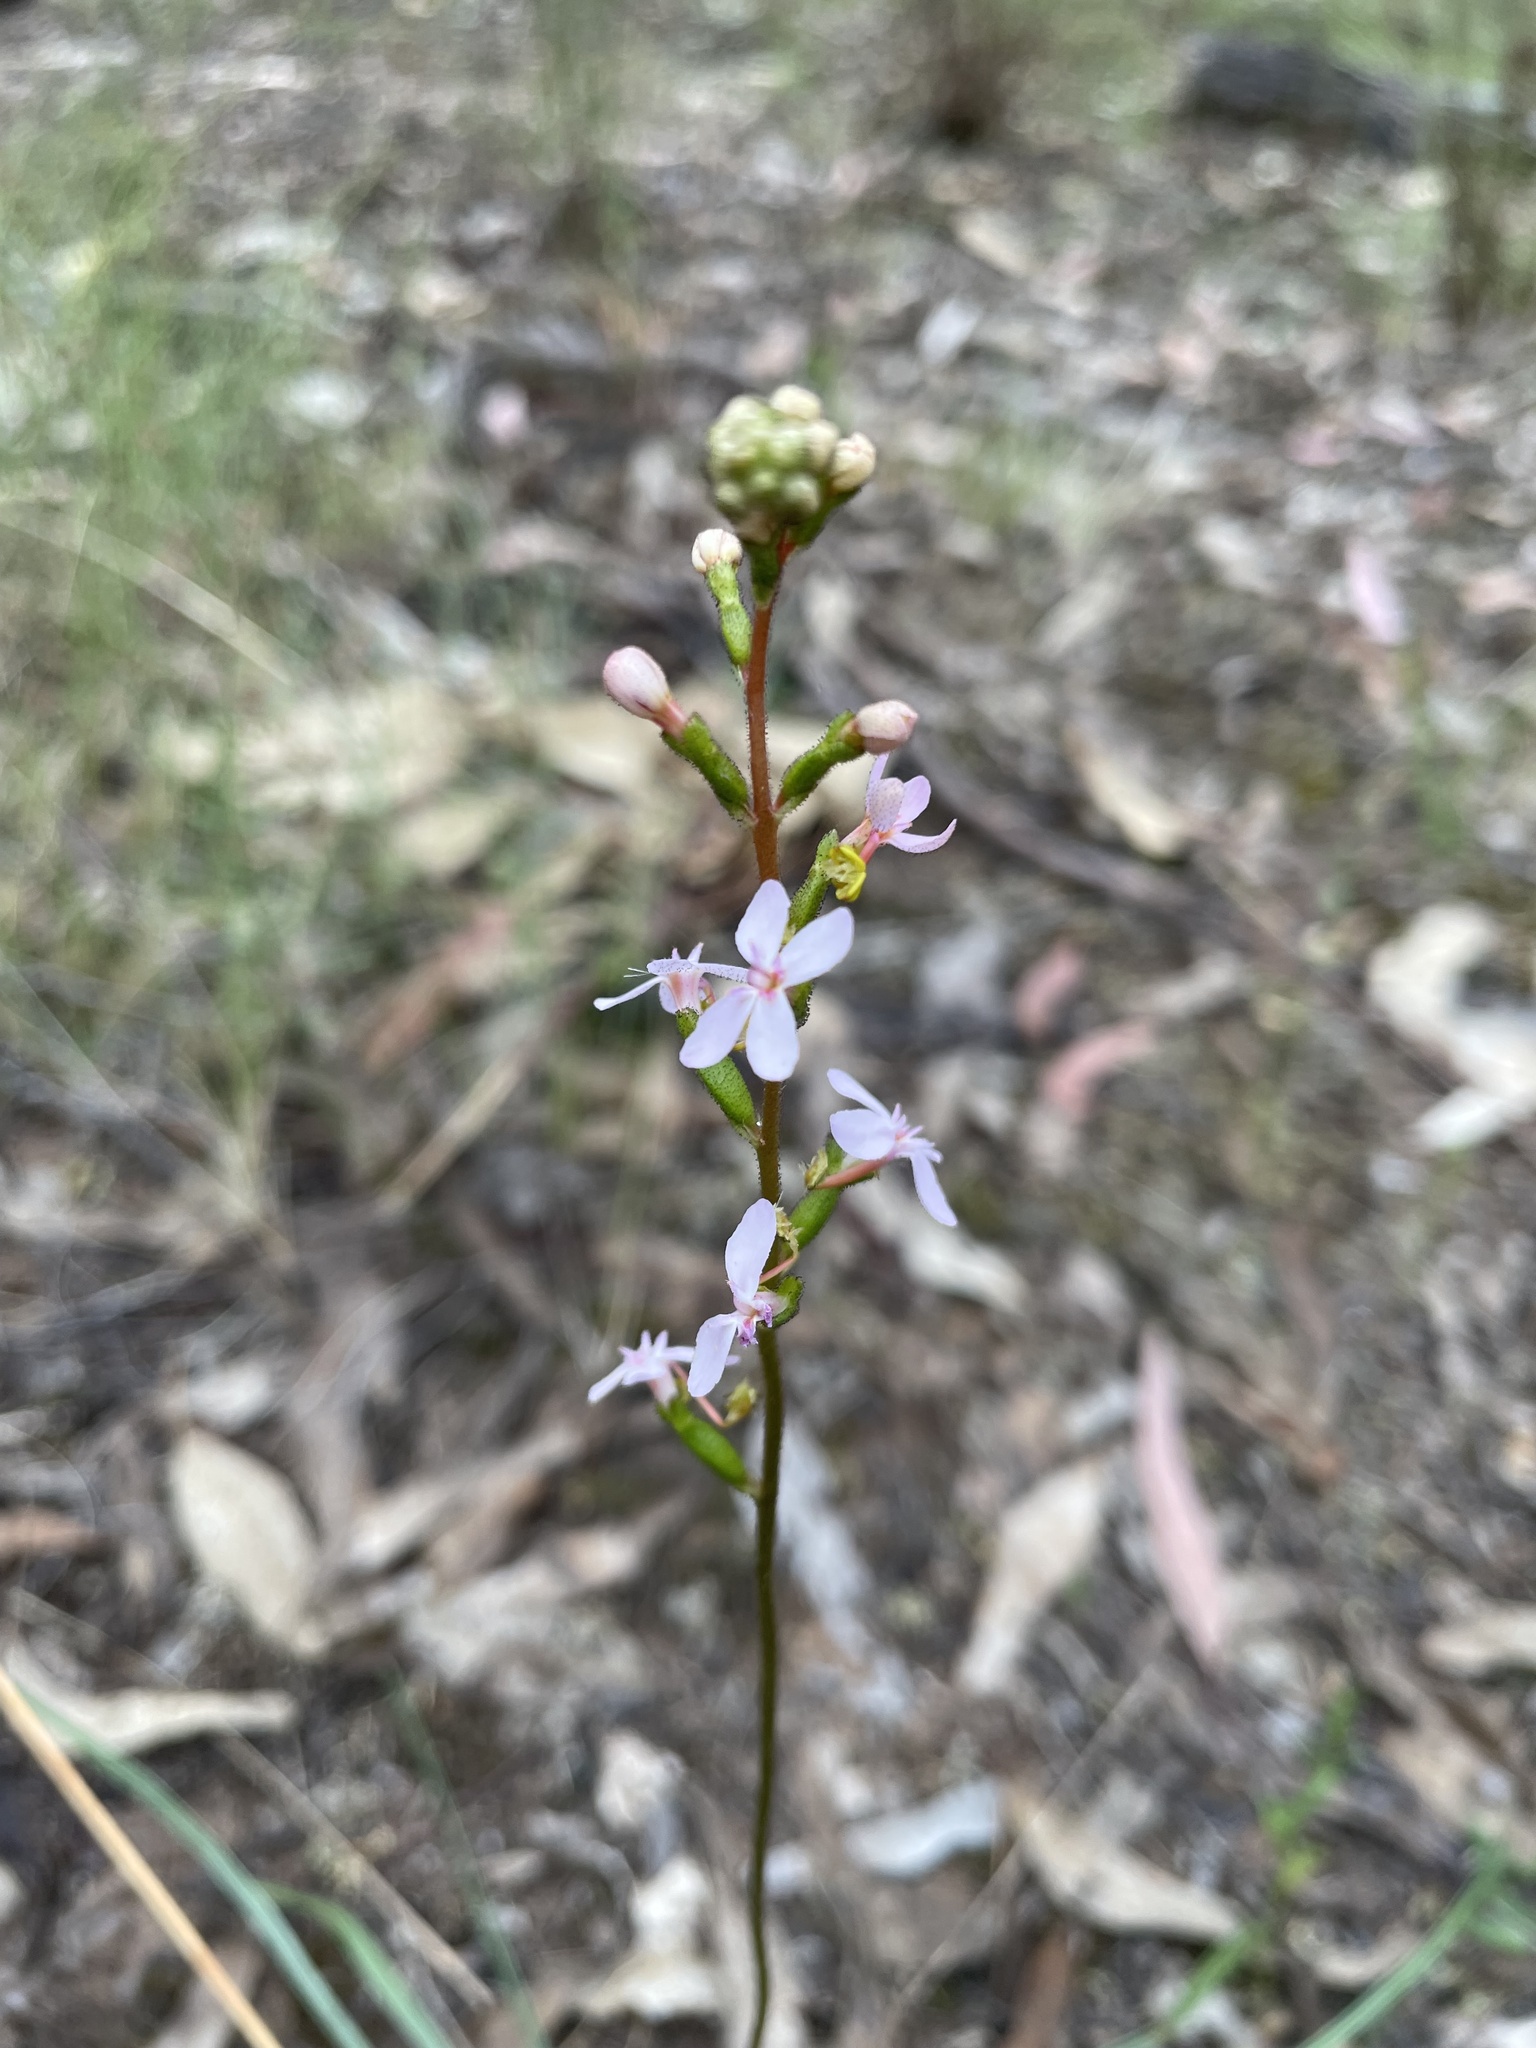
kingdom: Plantae
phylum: Tracheophyta
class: Magnoliopsida
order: Asterales
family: Stylidiaceae
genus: Stylidium
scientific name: Stylidium graminifolium
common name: Grass triggerplant
